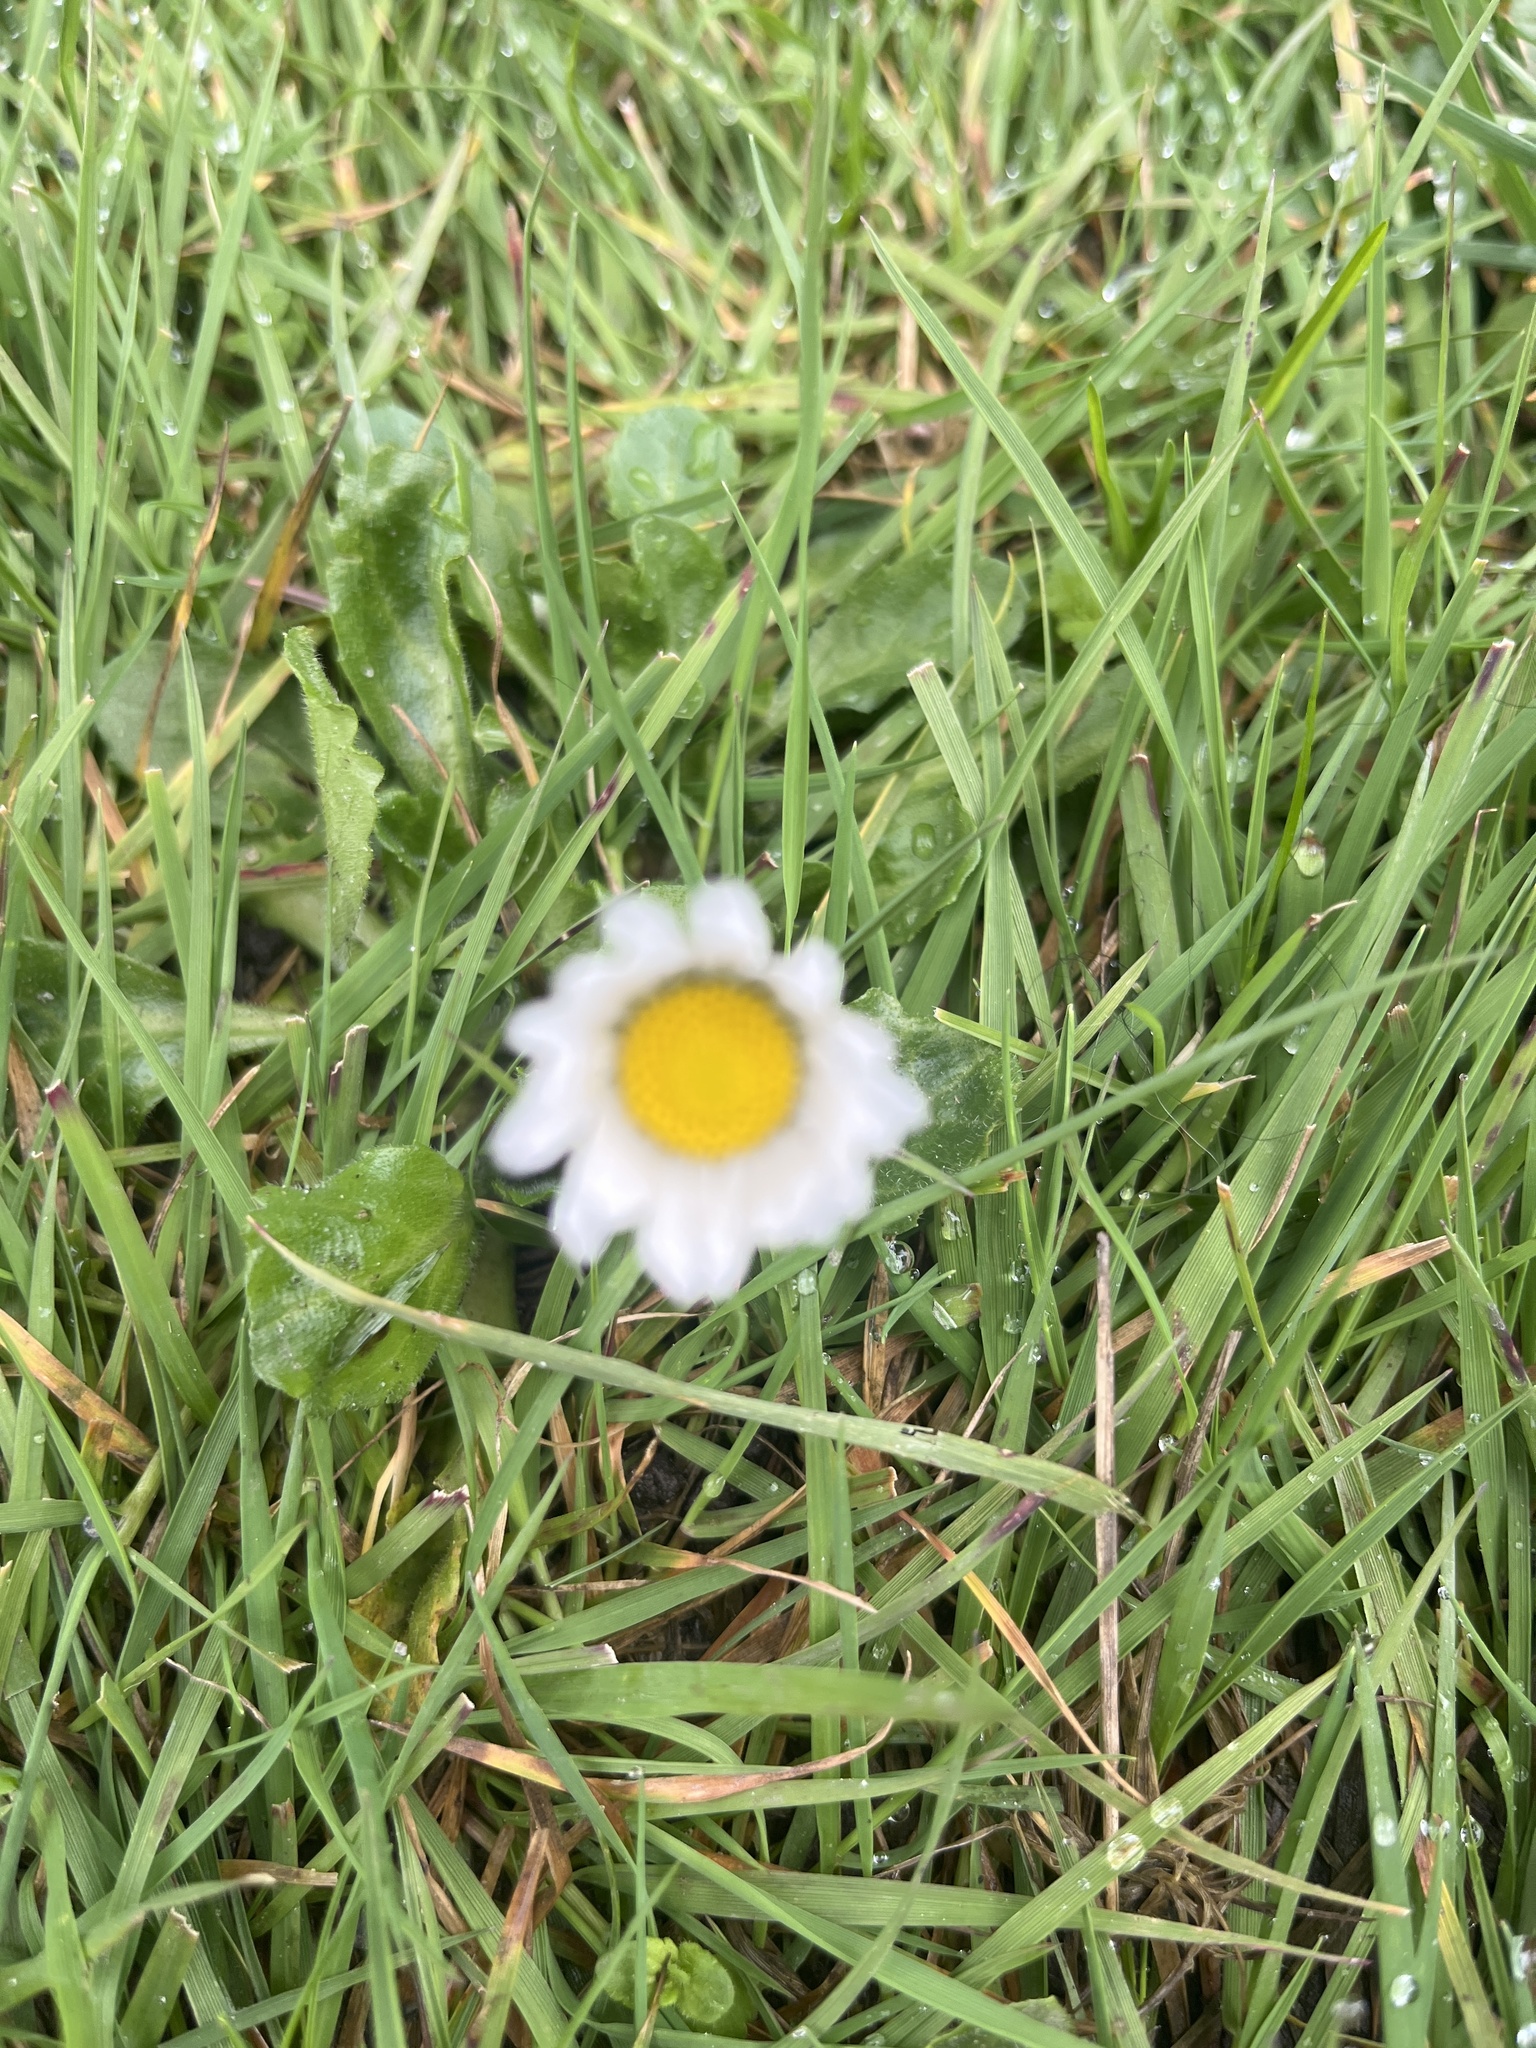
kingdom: Plantae
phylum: Tracheophyta
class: Magnoliopsida
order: Asterales
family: Asteraceae
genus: Bellis
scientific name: Bellis perennis
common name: Lawndaisy
